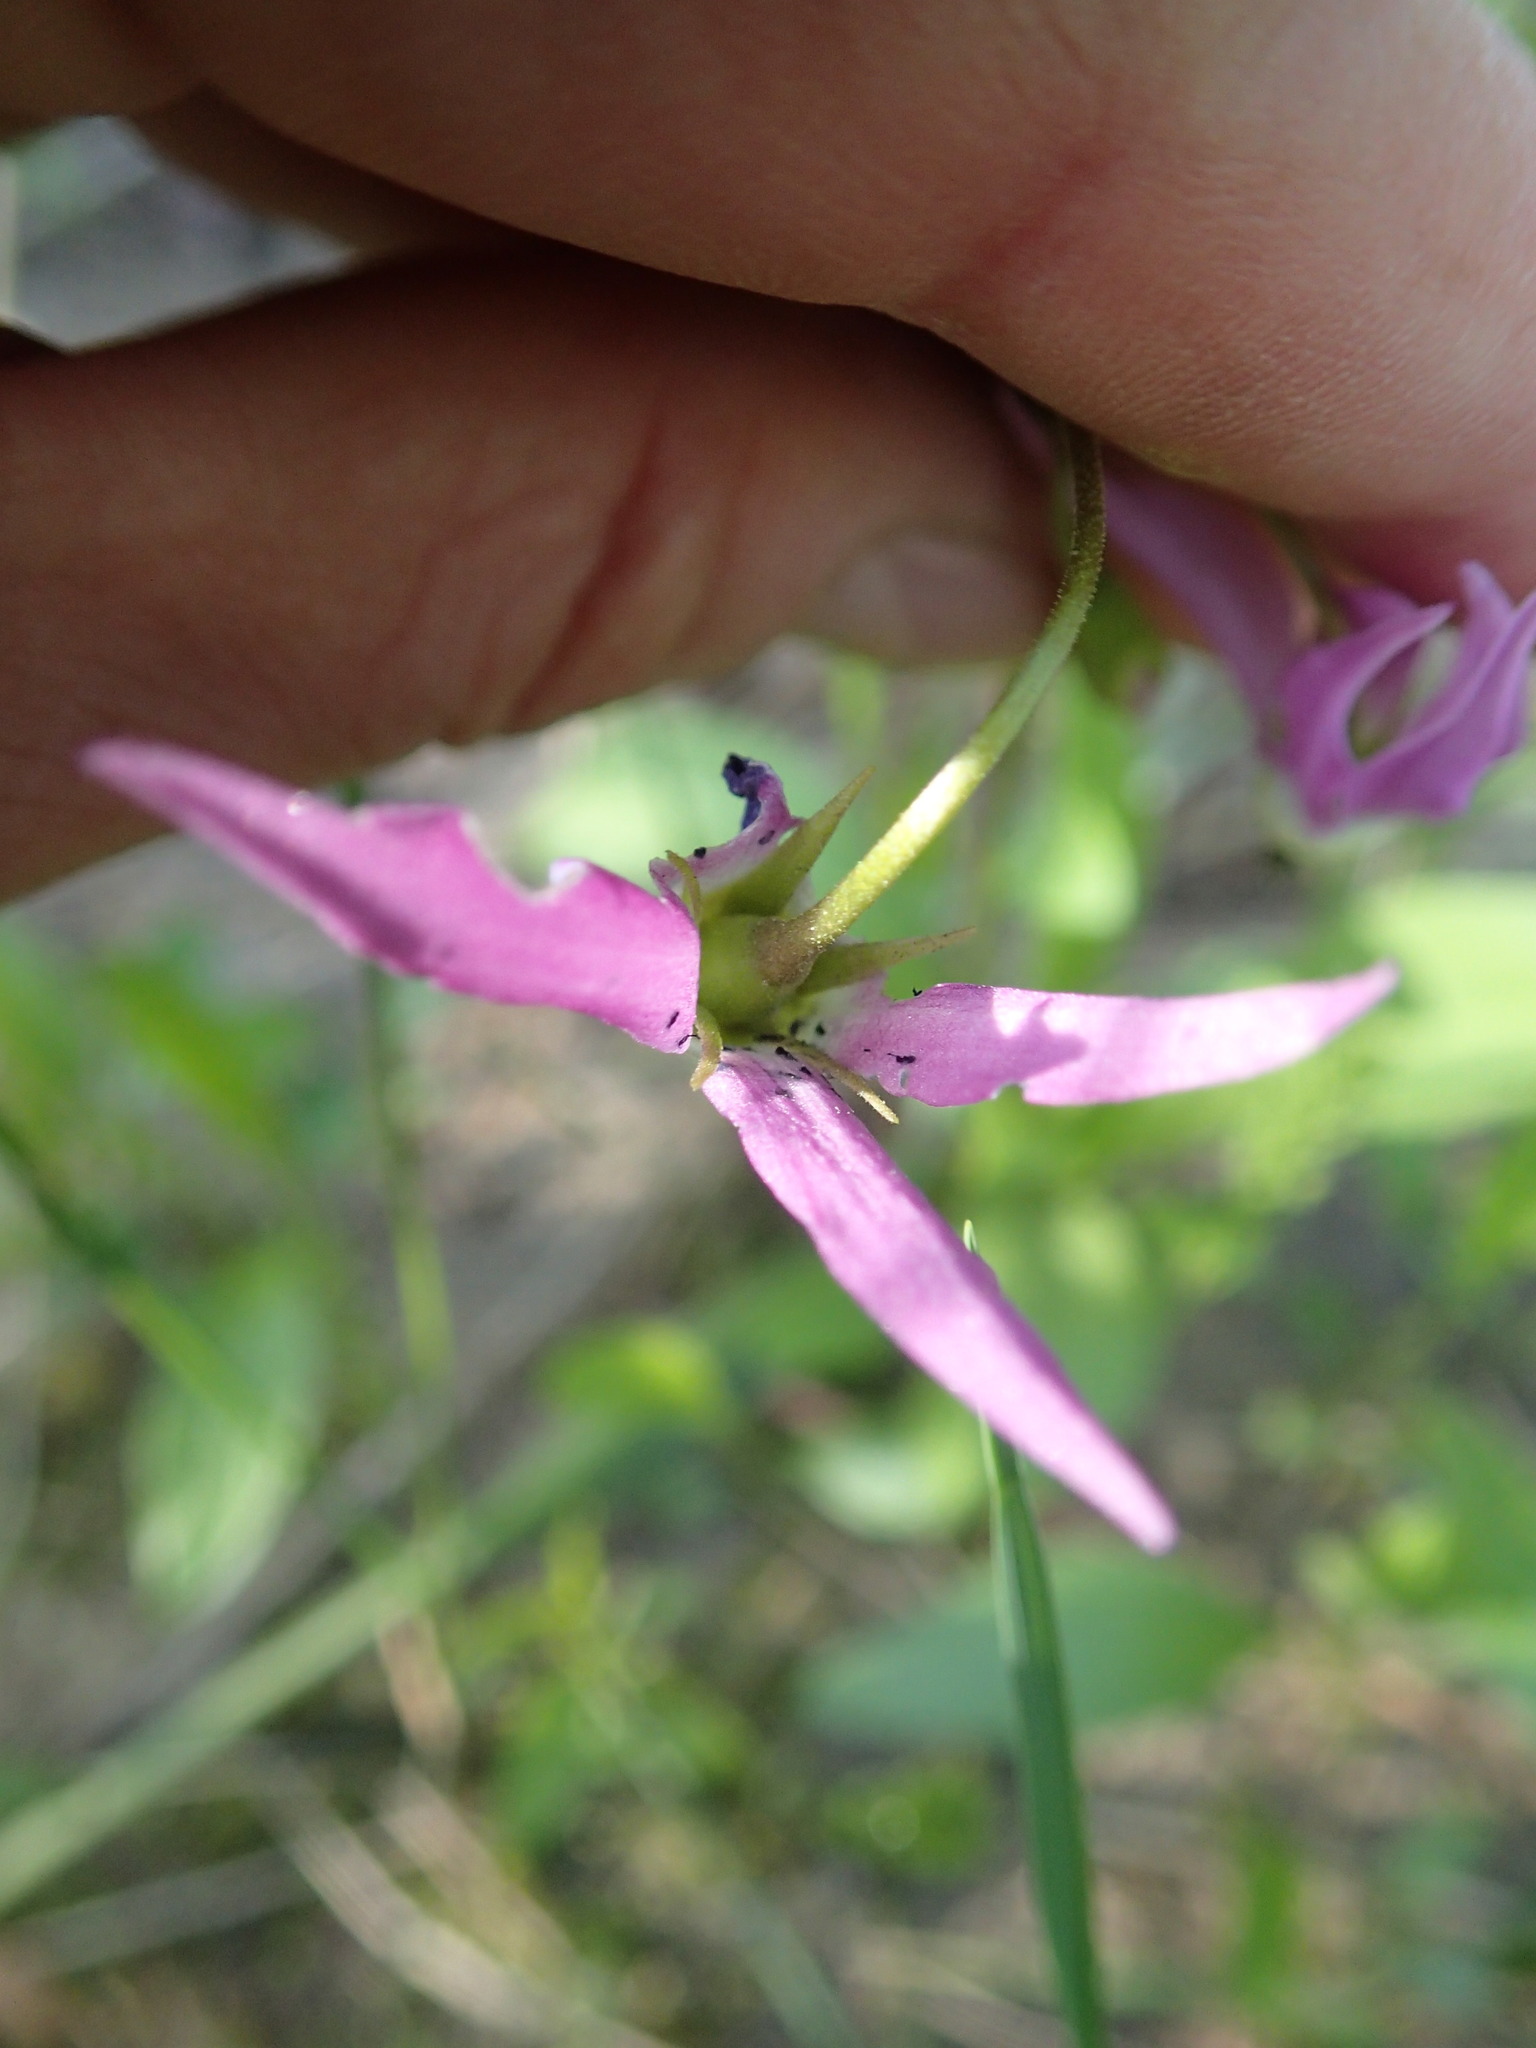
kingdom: Plantae
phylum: Tracheophyta
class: Magnoliopsida
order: Ericales
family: Primulaceae
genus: Dodecatheon
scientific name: Dodecatheon jeffreyanum
